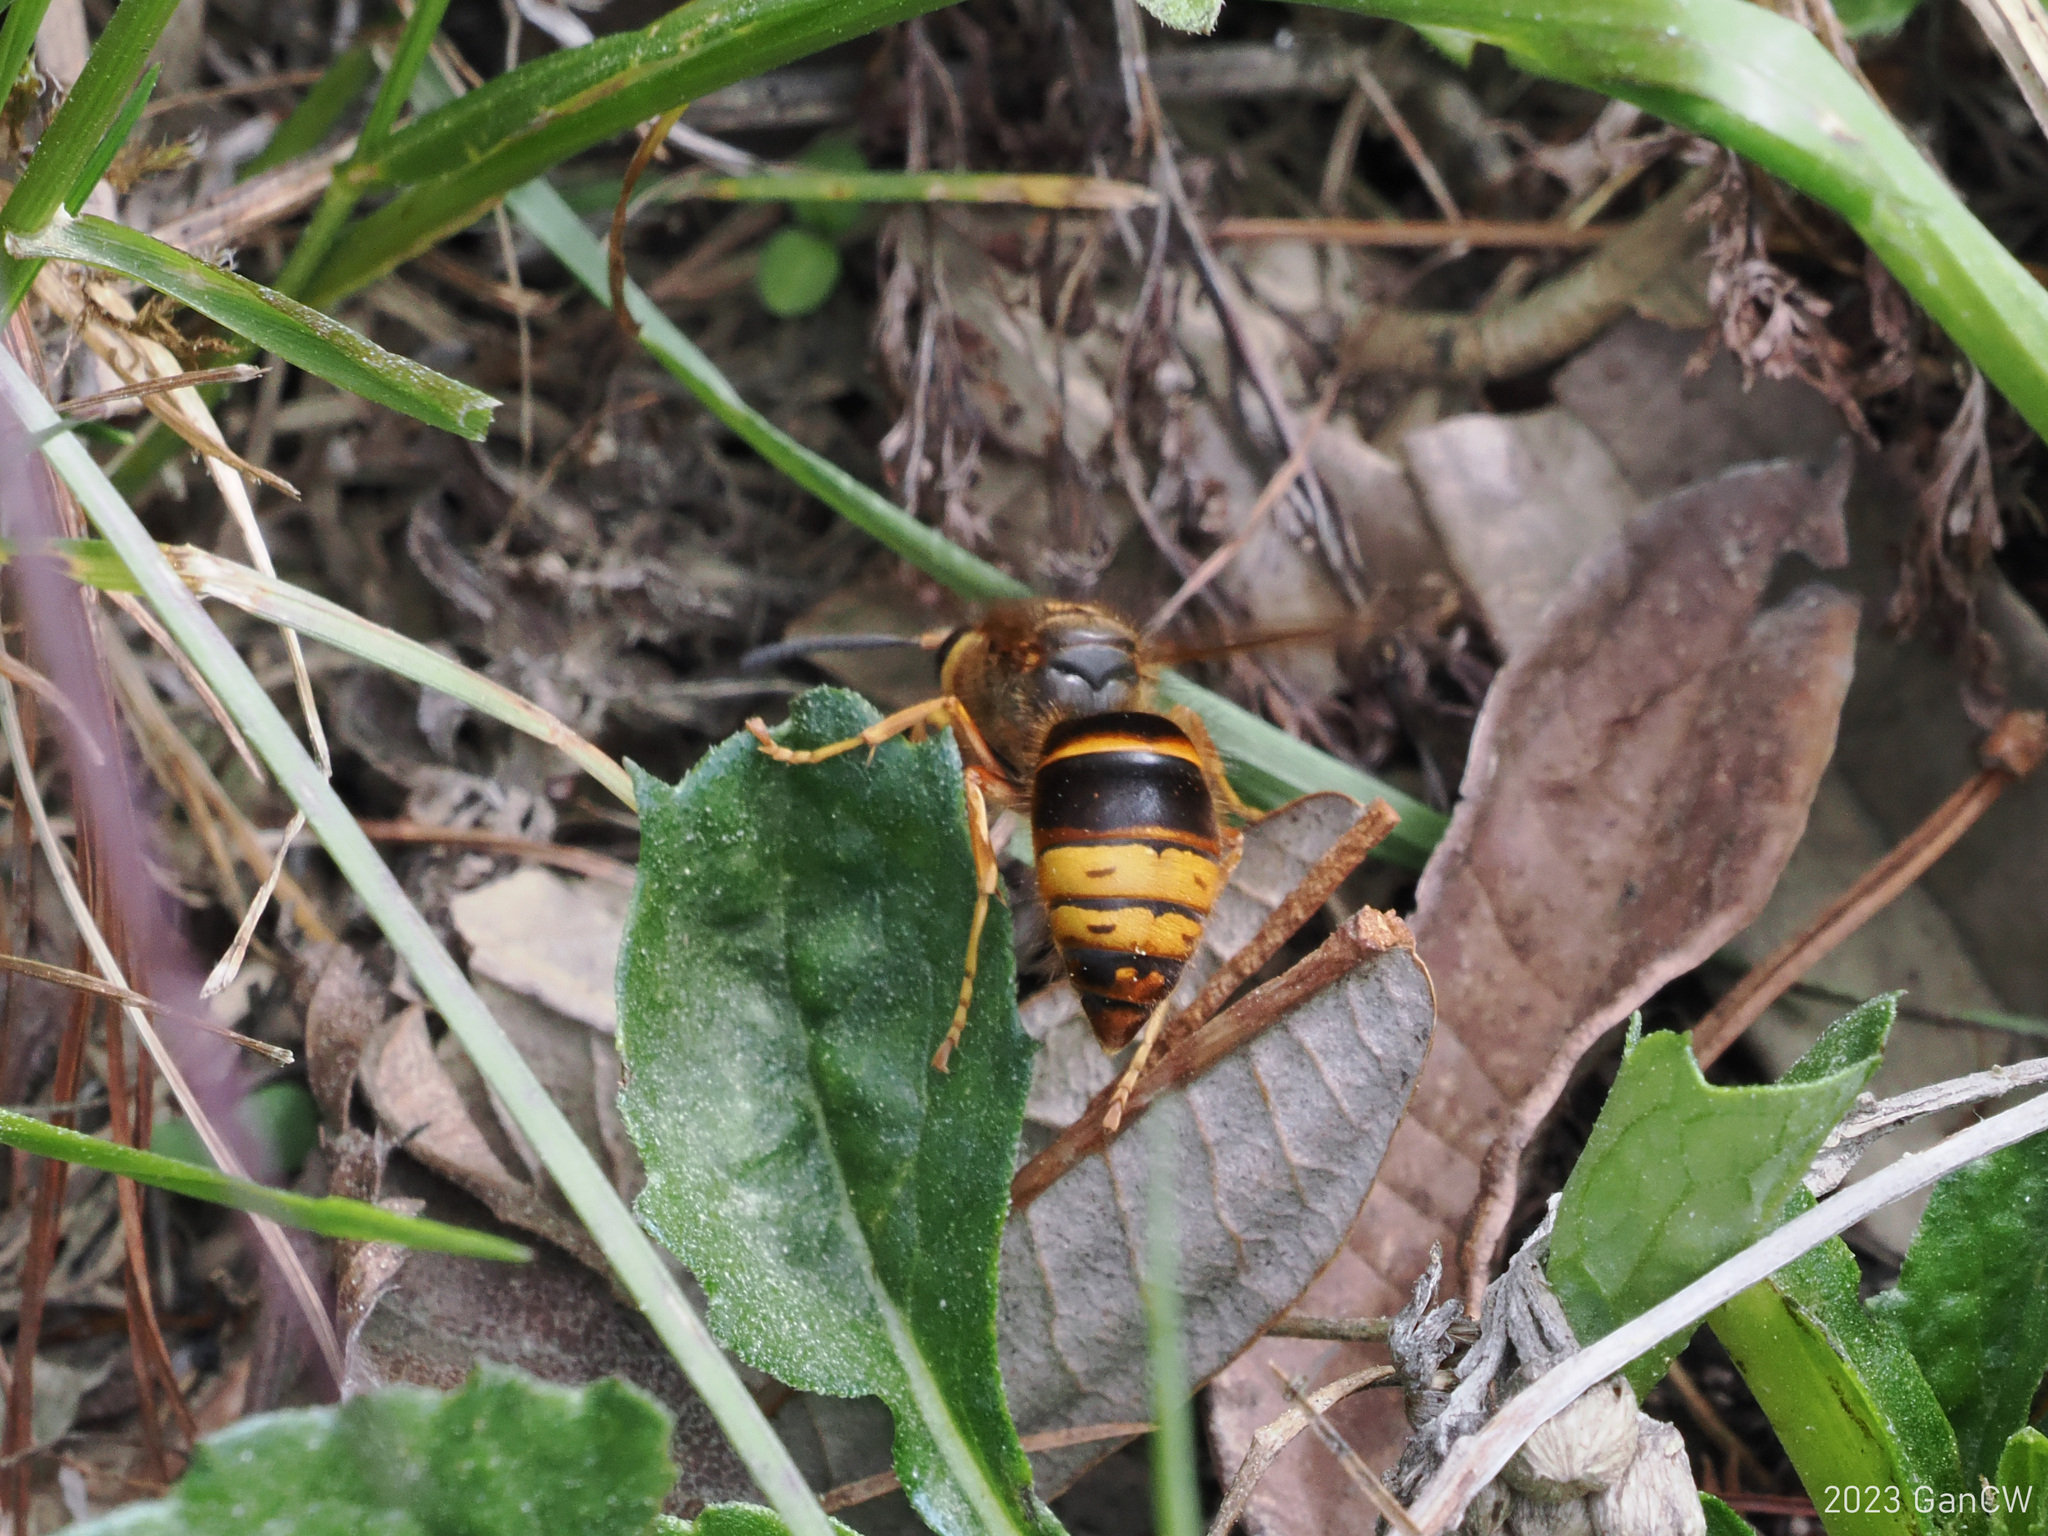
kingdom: Animalia
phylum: Arthropoda
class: Insecta
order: Hymenoptera
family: Vespidae
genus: Vespula
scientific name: Vespula structor
